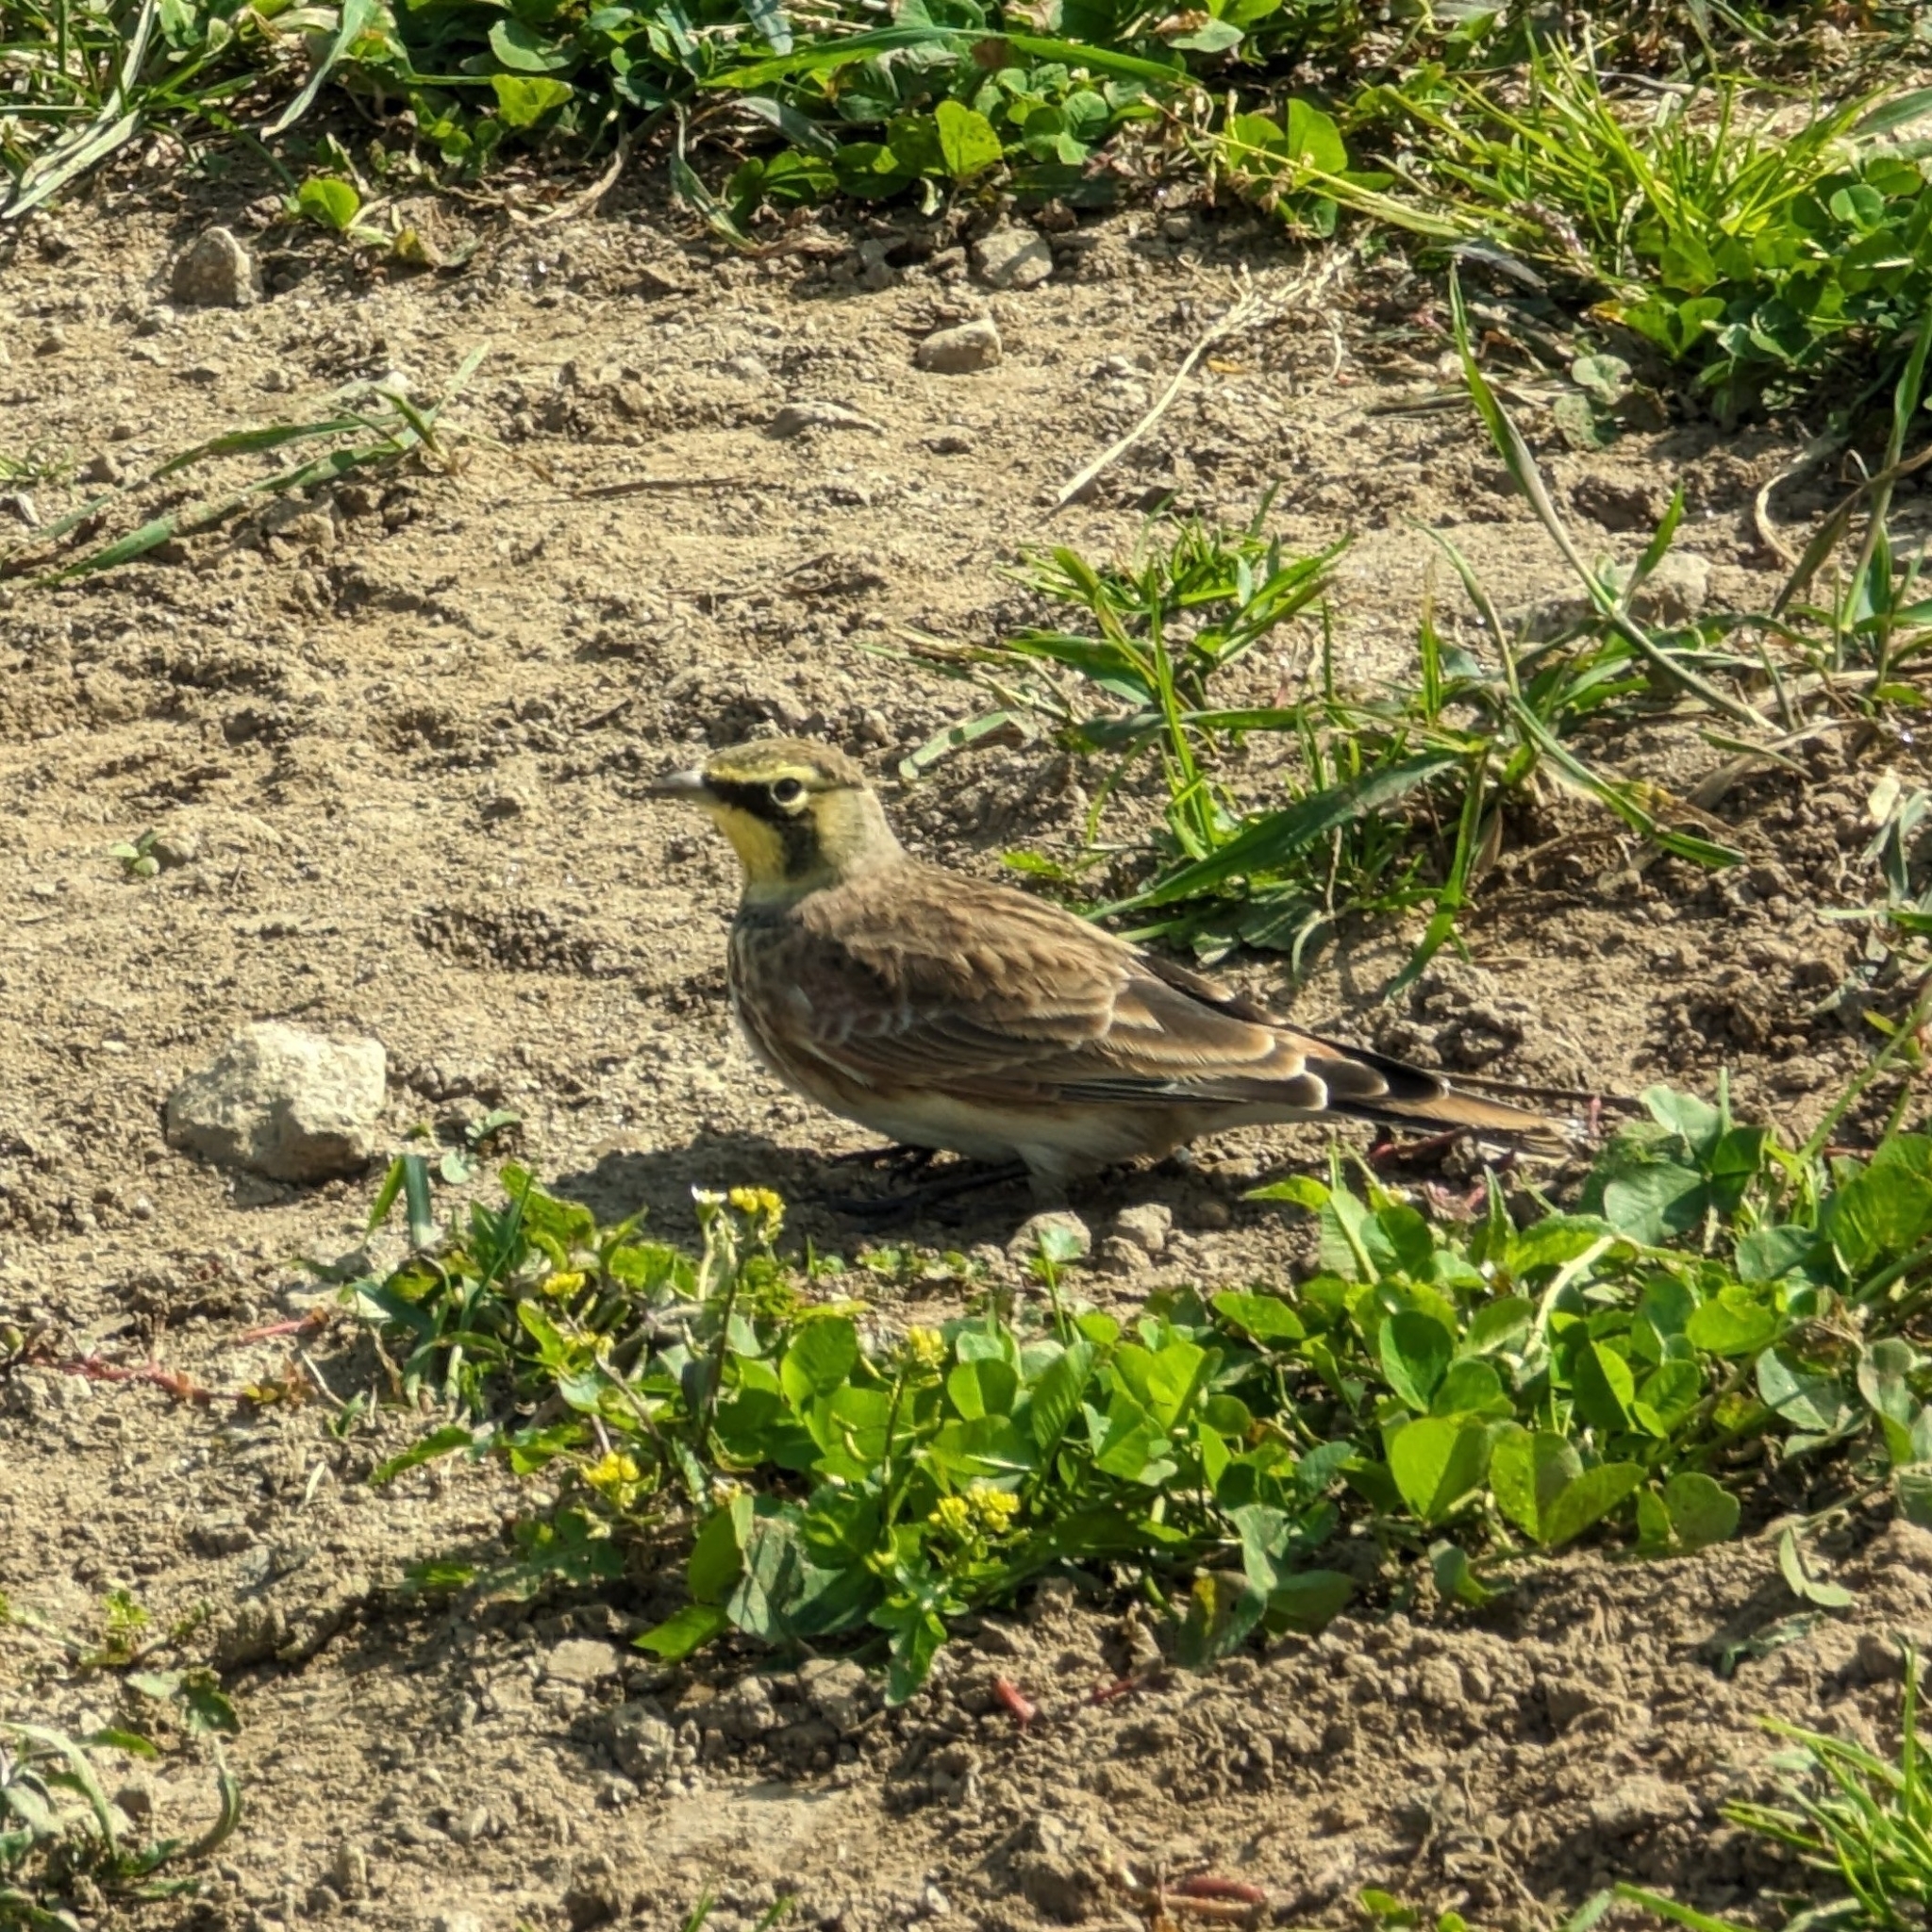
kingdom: Animalia
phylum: Chordata
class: Aves
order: Passeriformes
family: Alaudidae
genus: Eremophila
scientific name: Eremophila alpestris
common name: Horned lark
